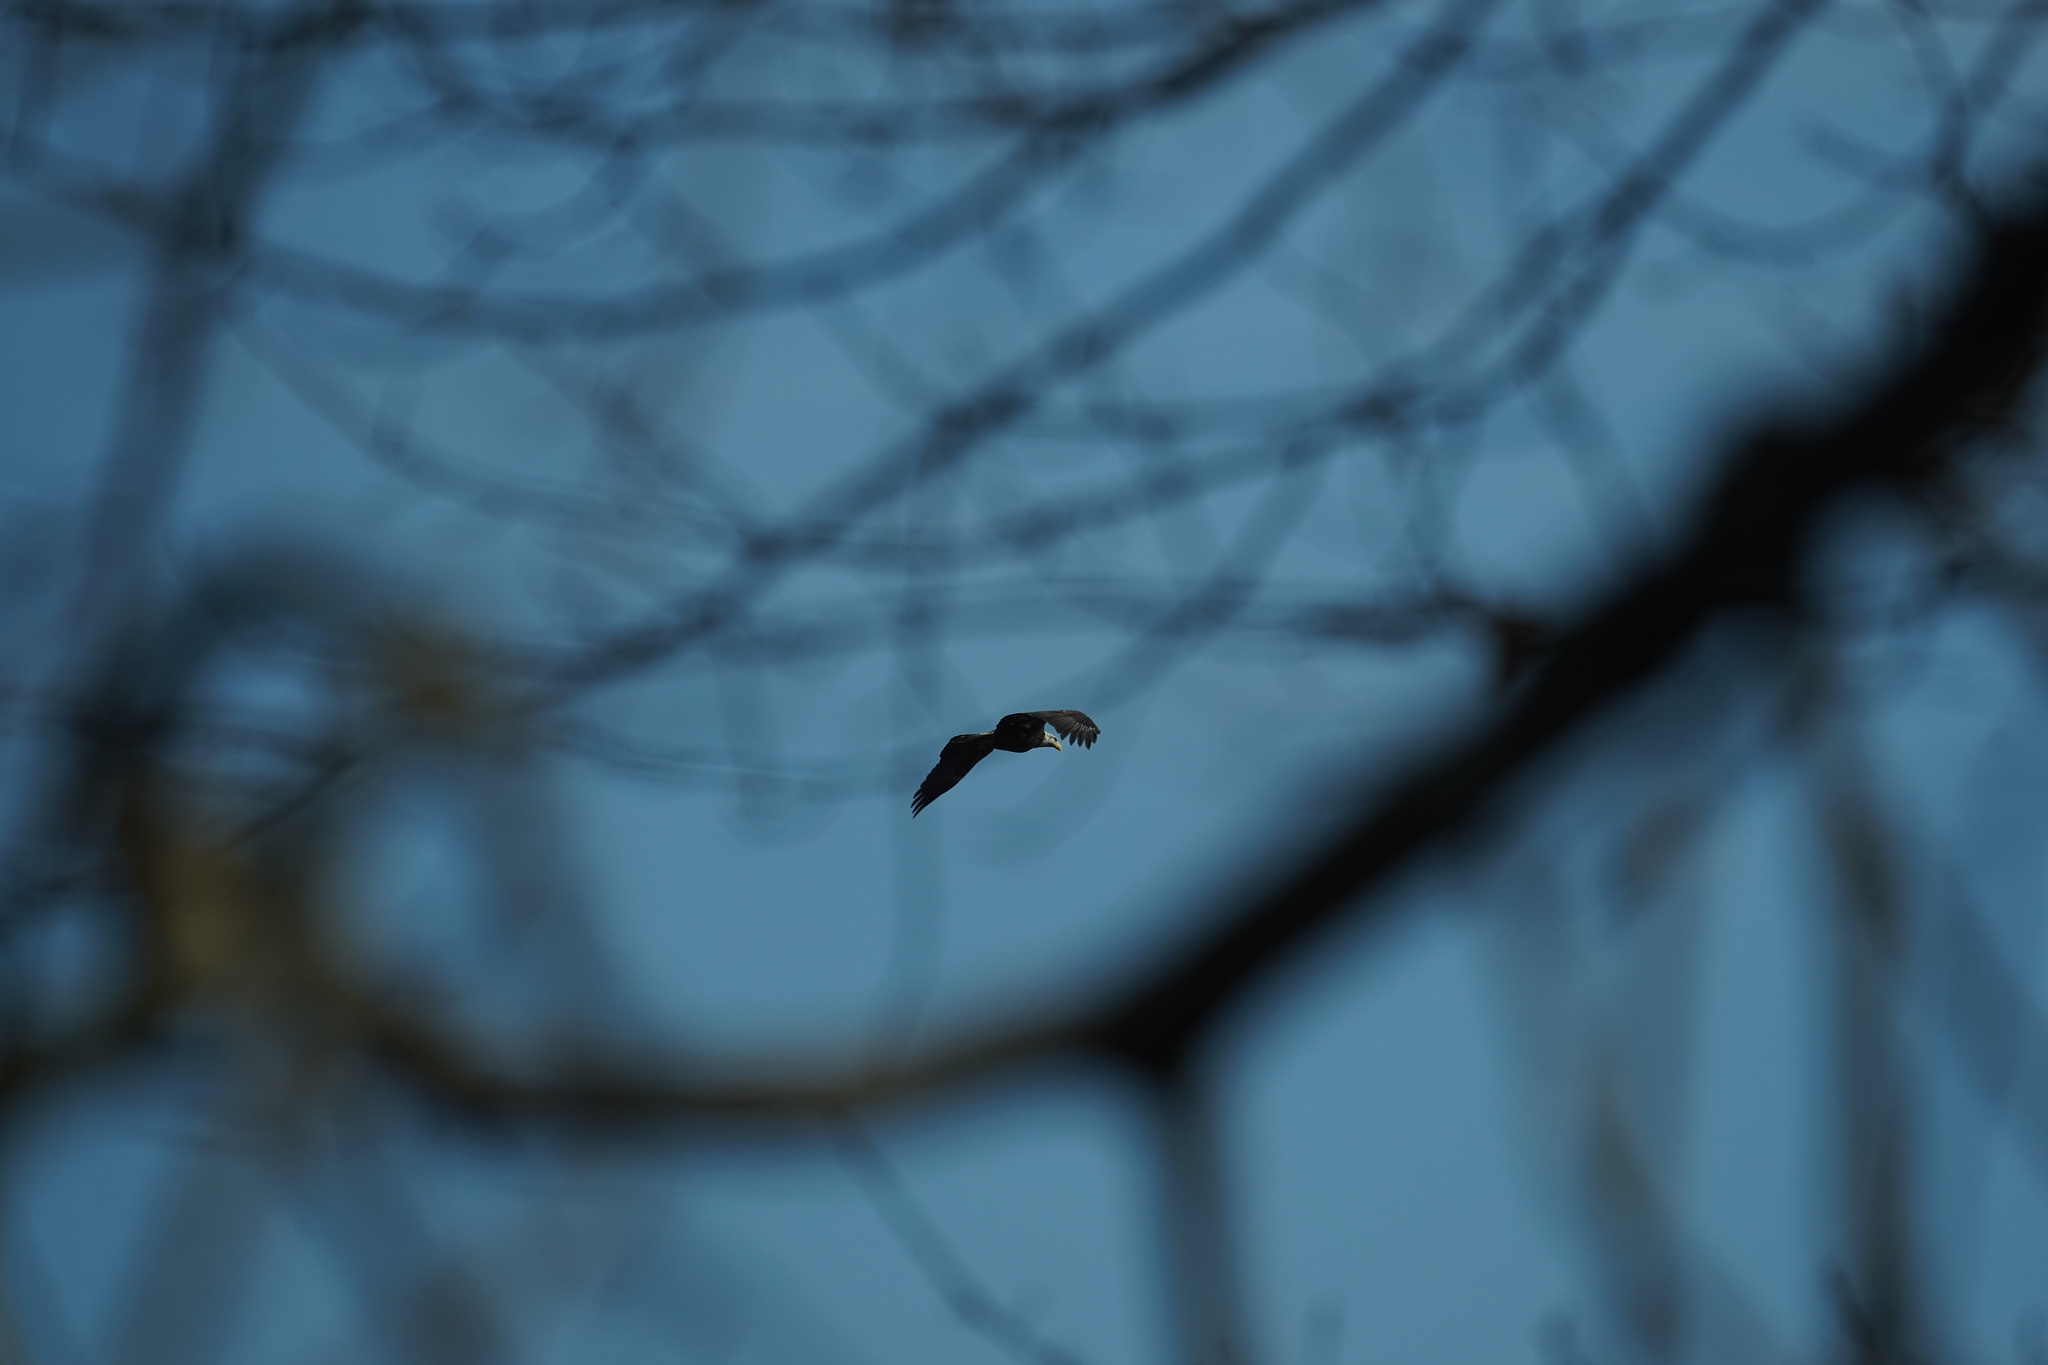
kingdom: Animalia
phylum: Chordata
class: Aves
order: Accipitriformes
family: Accipitridae
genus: Haliaeetus
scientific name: Haliaeetus leucocephalus
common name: Bald eagle
